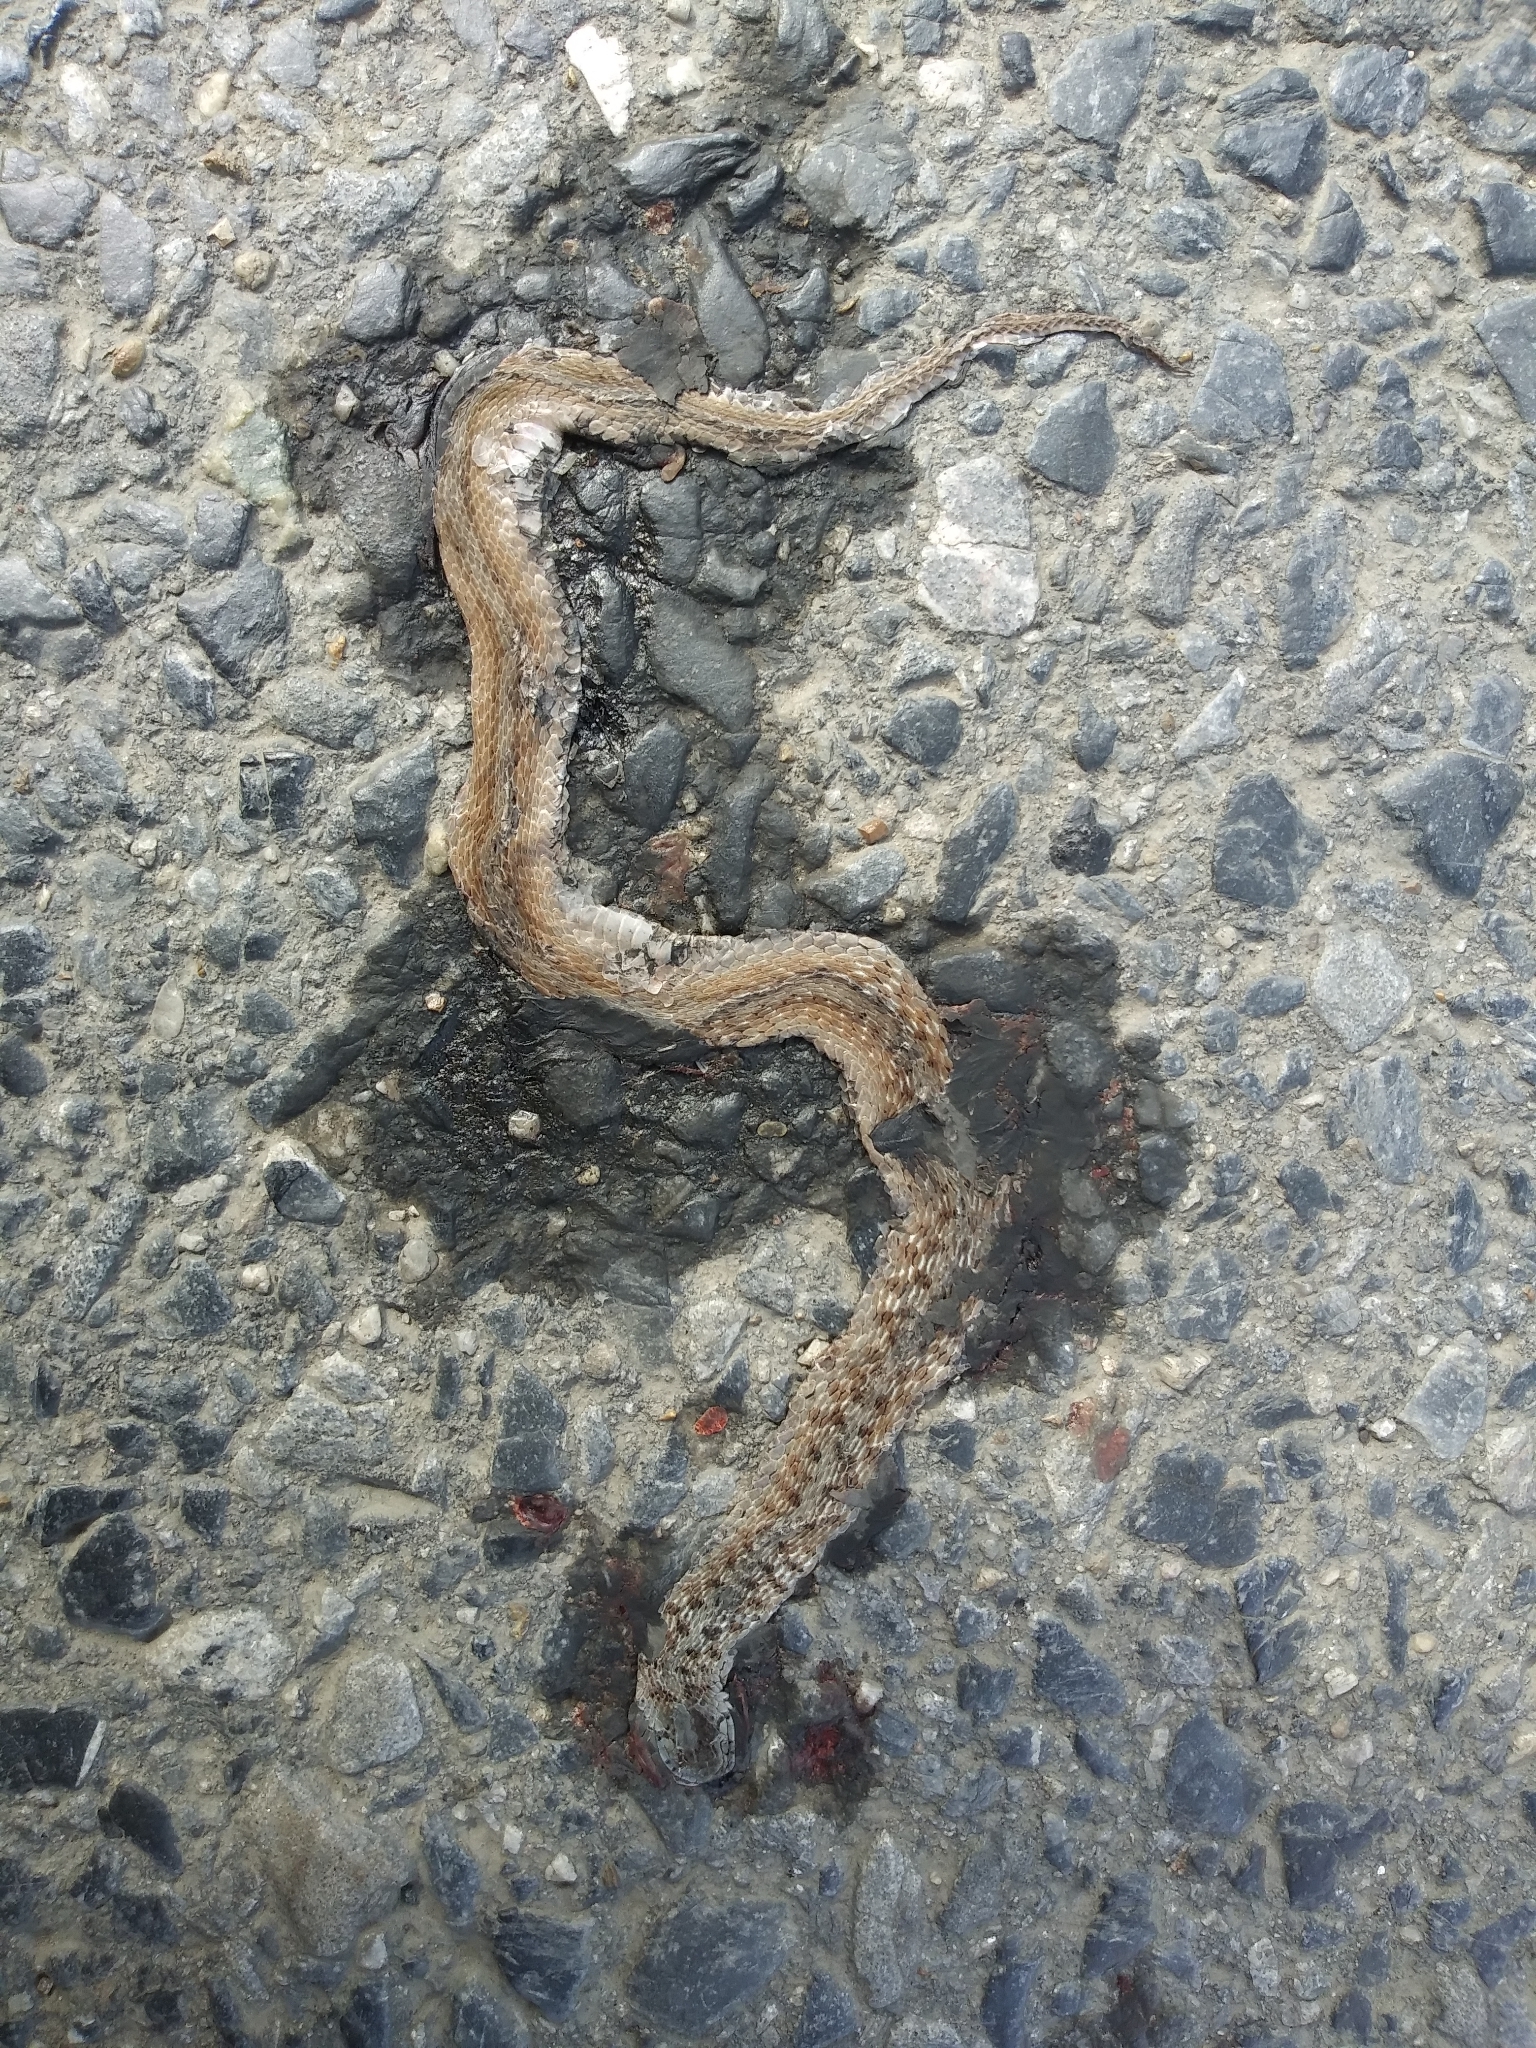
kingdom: Animalia
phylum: Chordata
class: Squamata
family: Colubridae
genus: Storeria
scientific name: Storeria dekayi
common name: (dekay’s) brown snake
